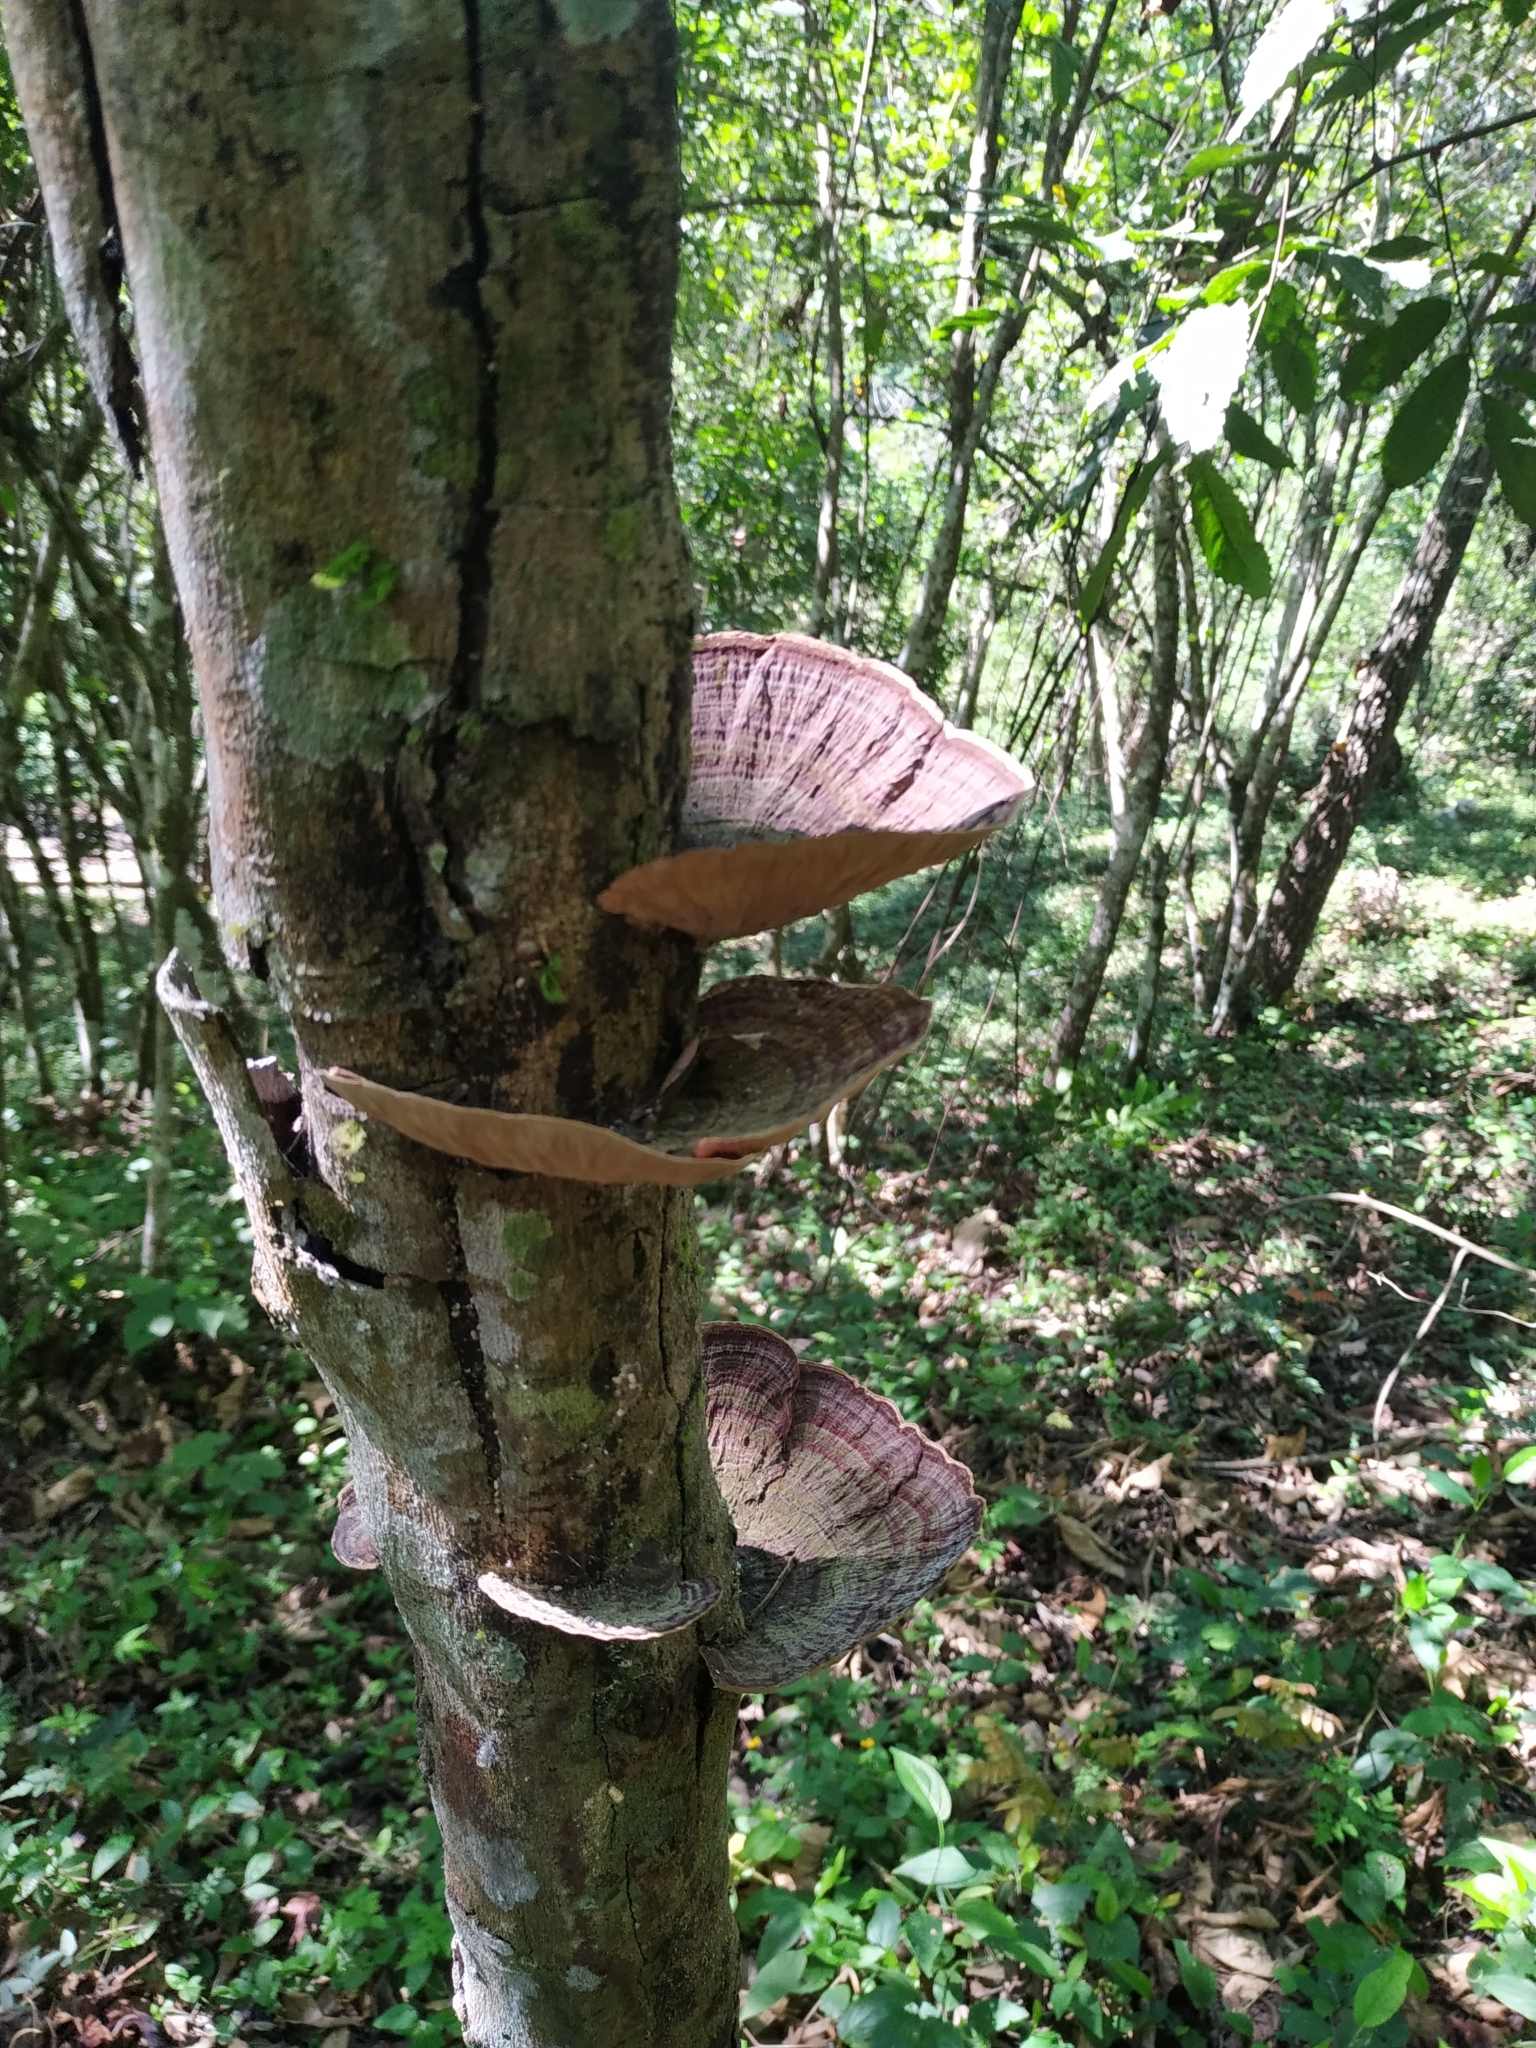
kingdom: Fungi
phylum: Basidiomycota
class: Agaricomycetes
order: Polyporales
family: Polyporaceae
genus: Trametes
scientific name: Trametes variegata
